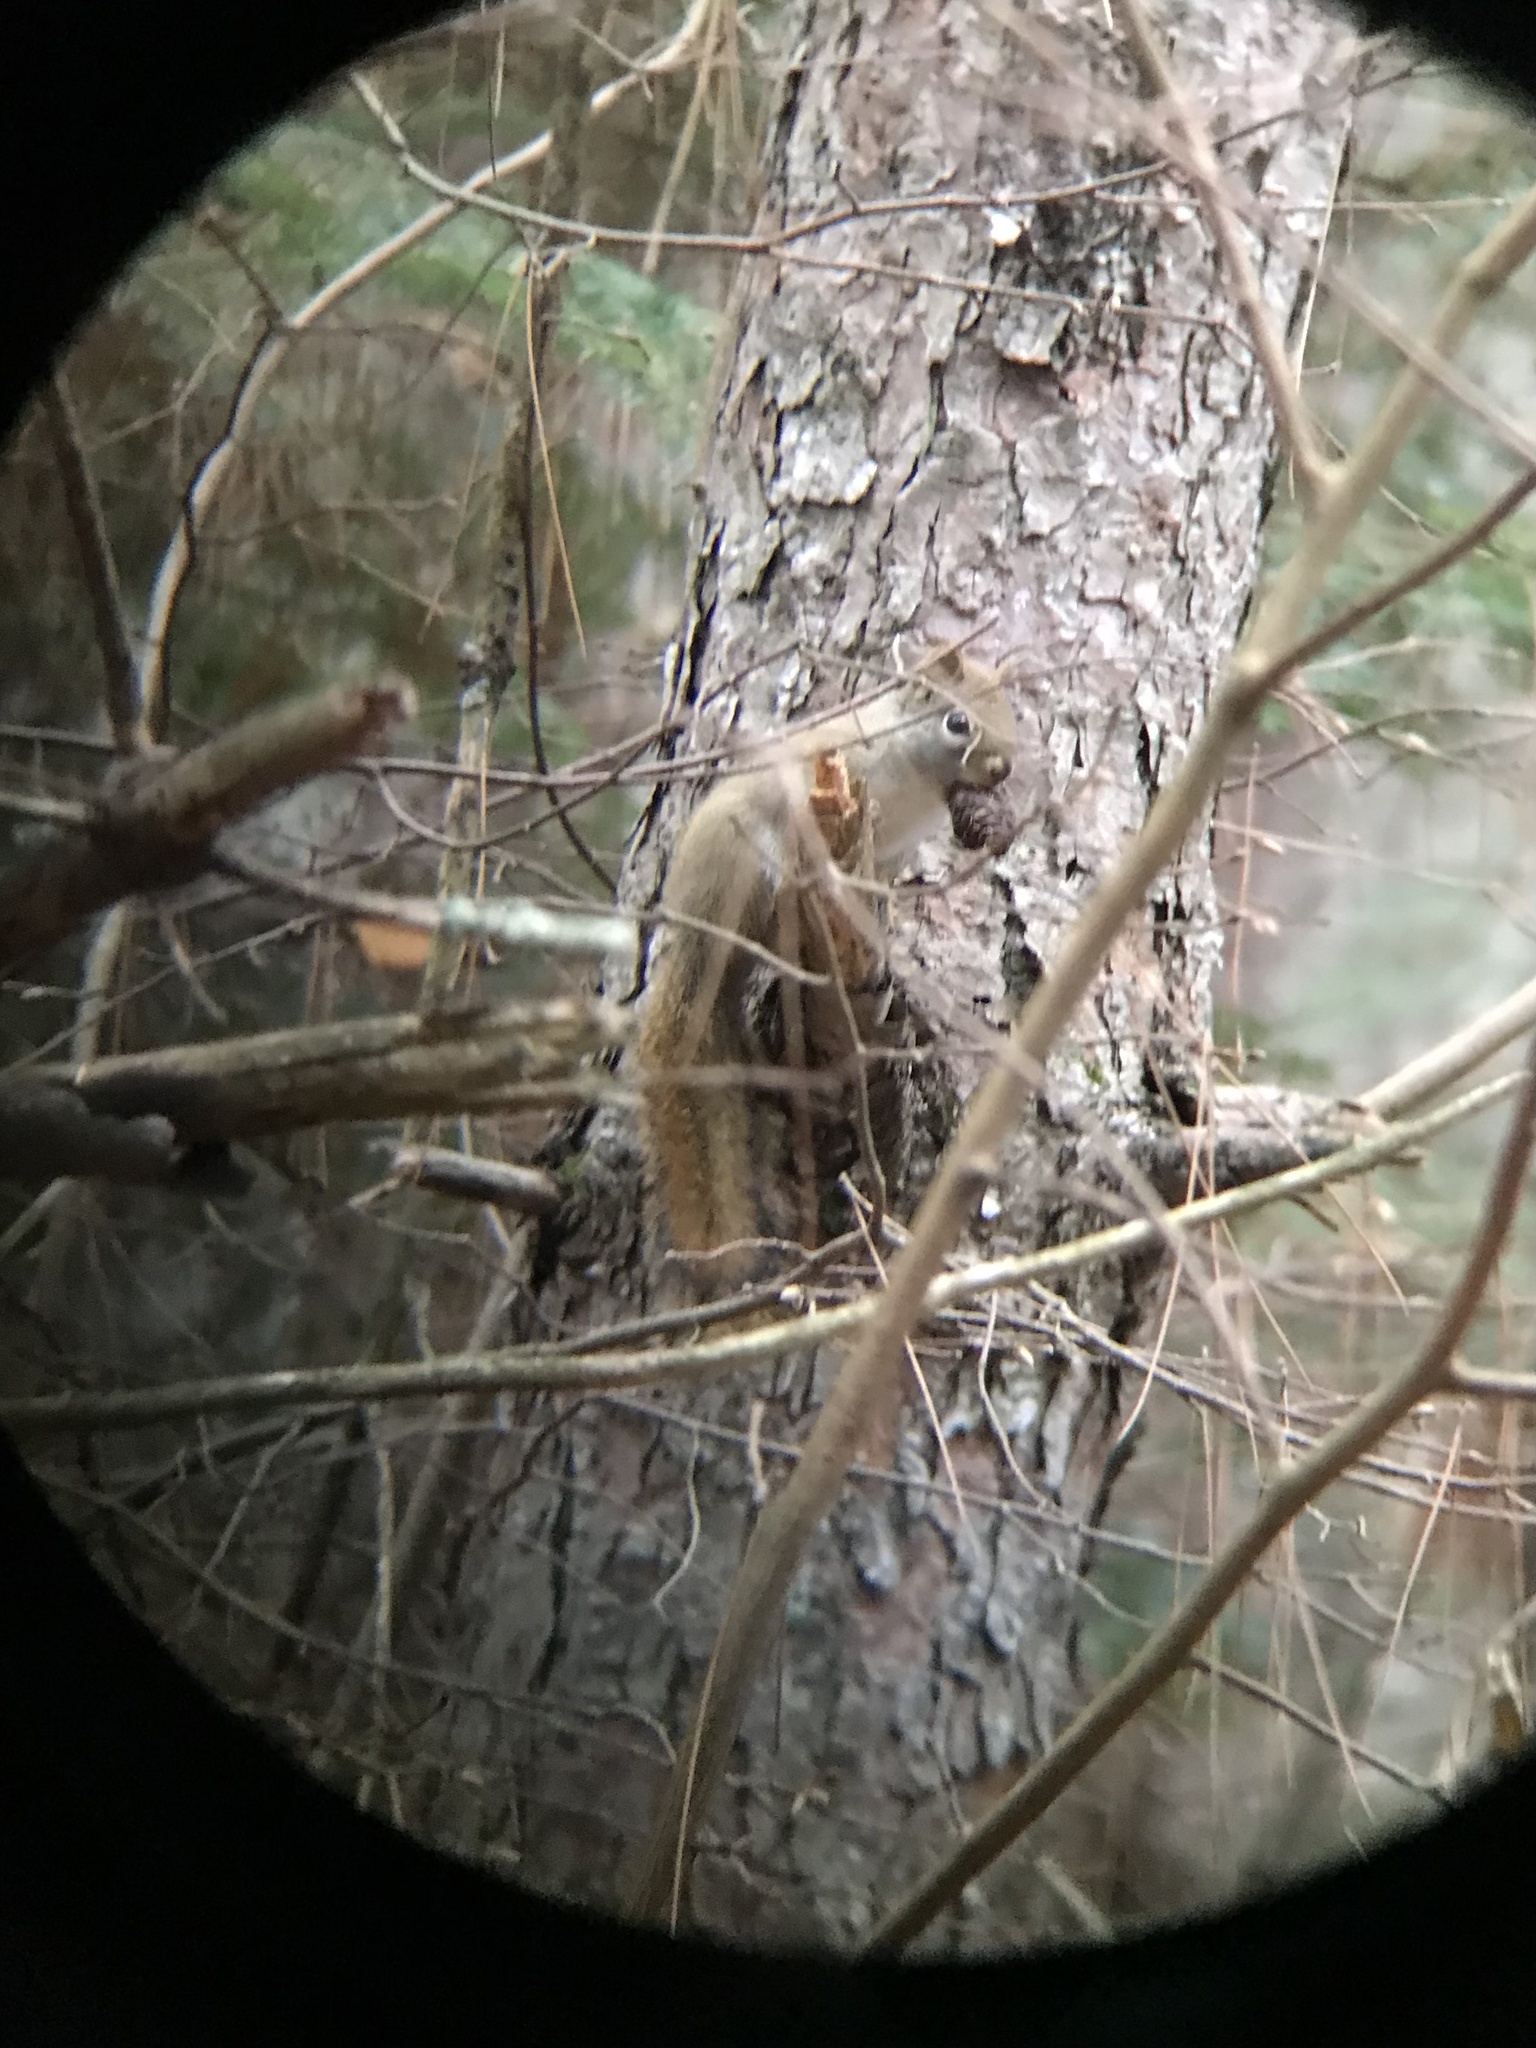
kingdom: Animalia
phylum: Chordata
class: Mammalia
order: Rodentia
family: Sciuridae
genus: Tamiasciurus
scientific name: Tamiasciurus hudsonicus
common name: Red squirrel
